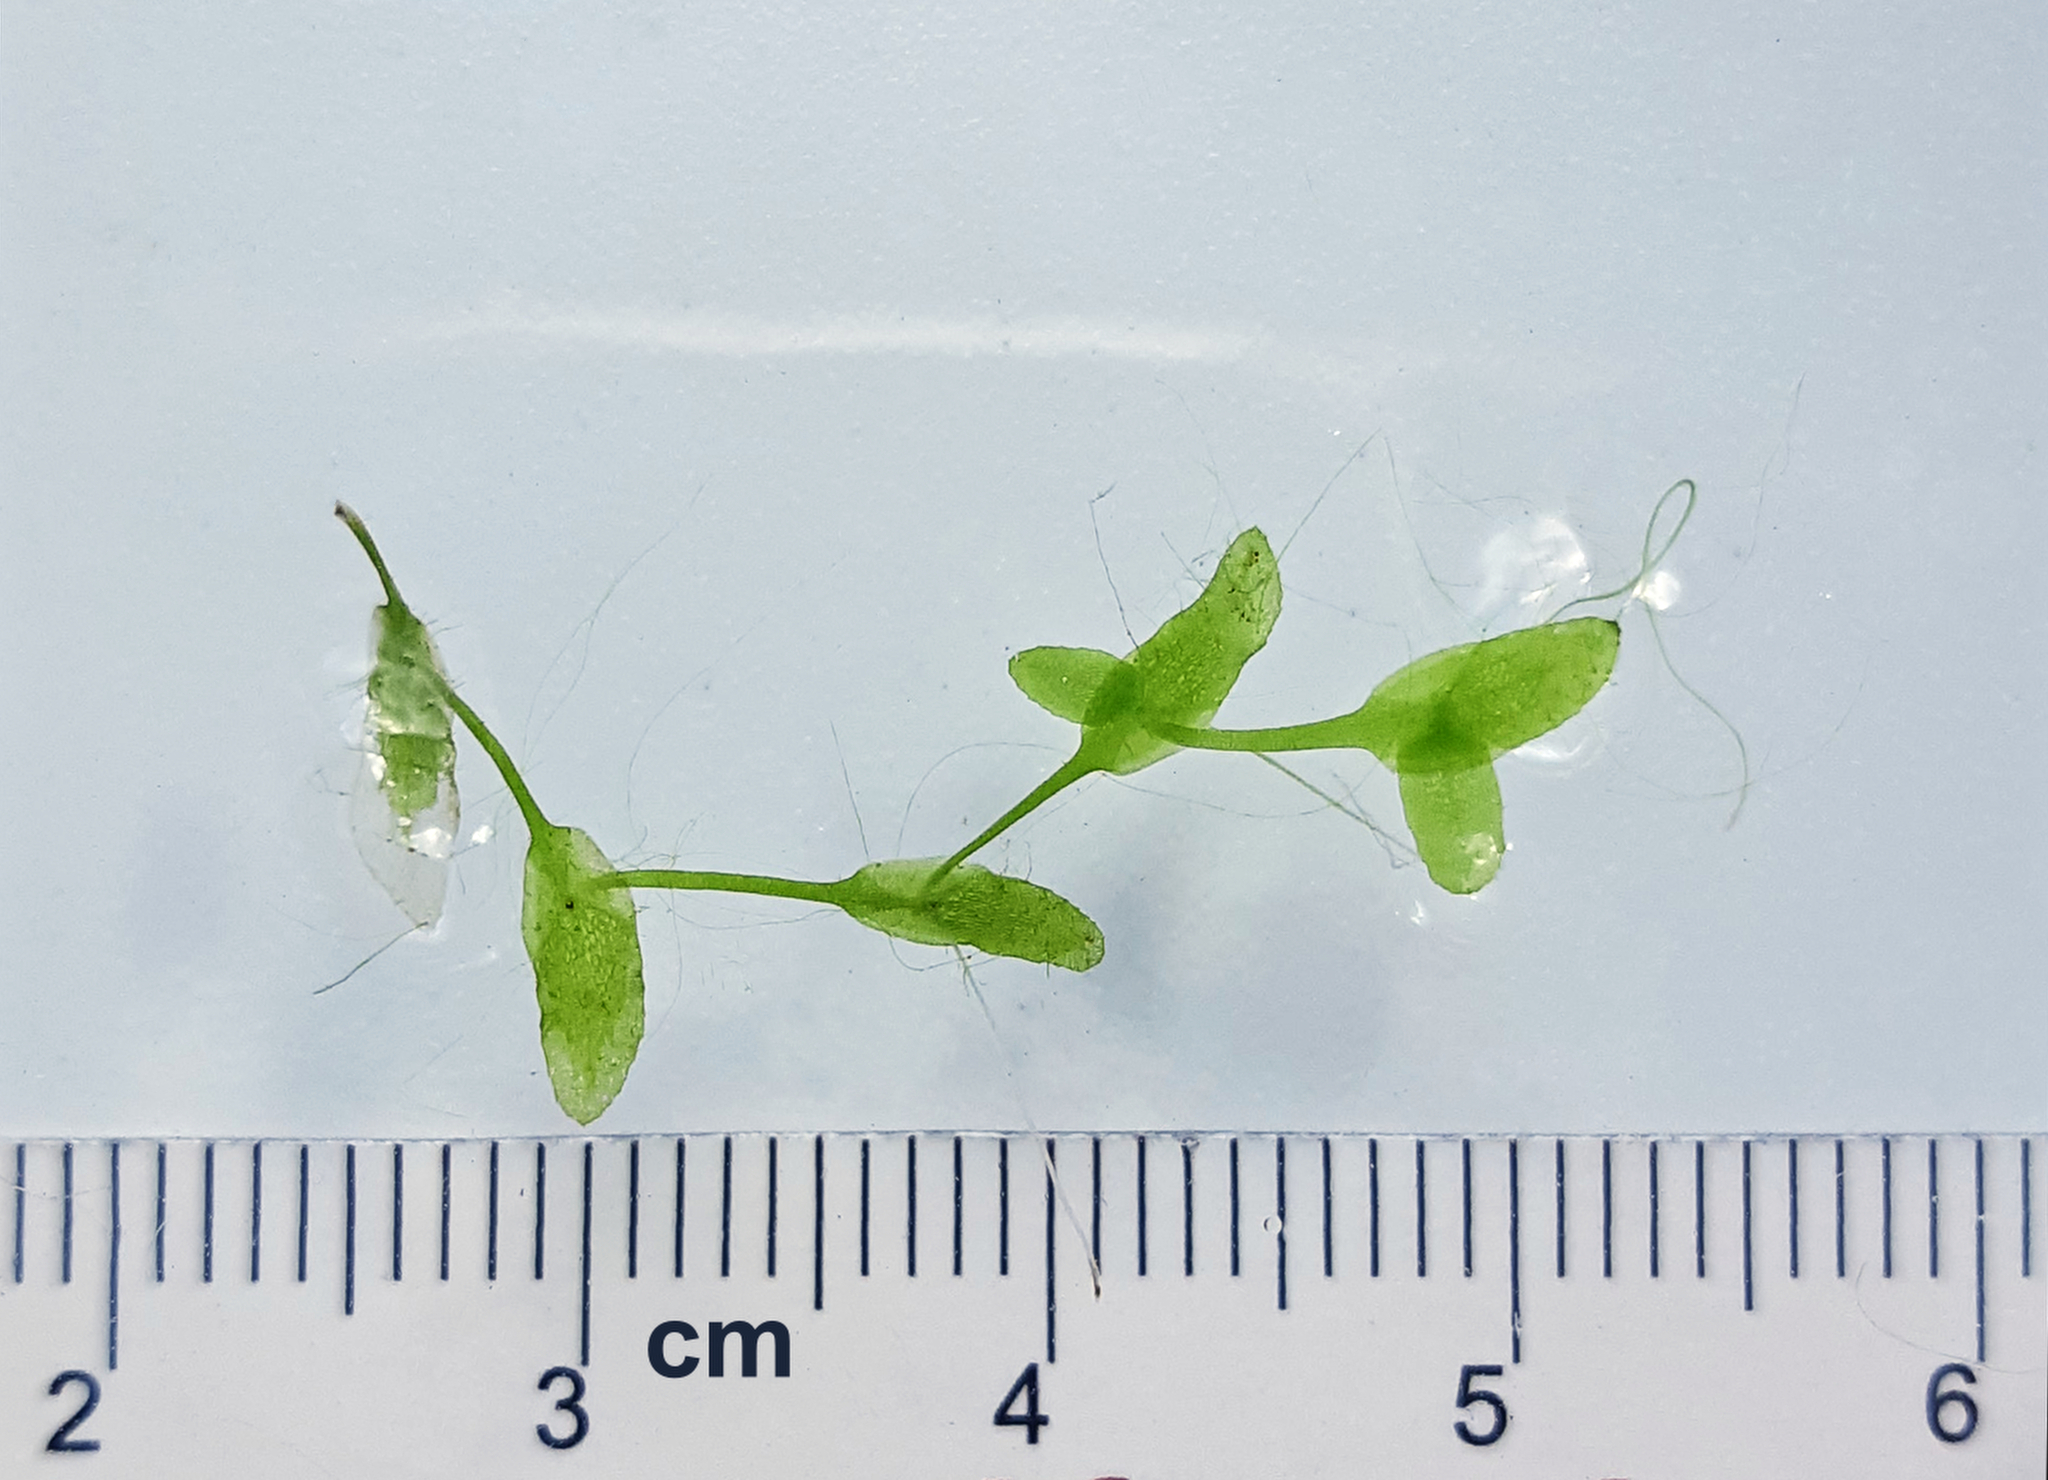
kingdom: Plantae
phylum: Tracheophyta
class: Liliopsida
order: Alismatales
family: Araceae
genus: Lemna
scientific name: Lemna trisulca
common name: Ivy-leaved duckweed
